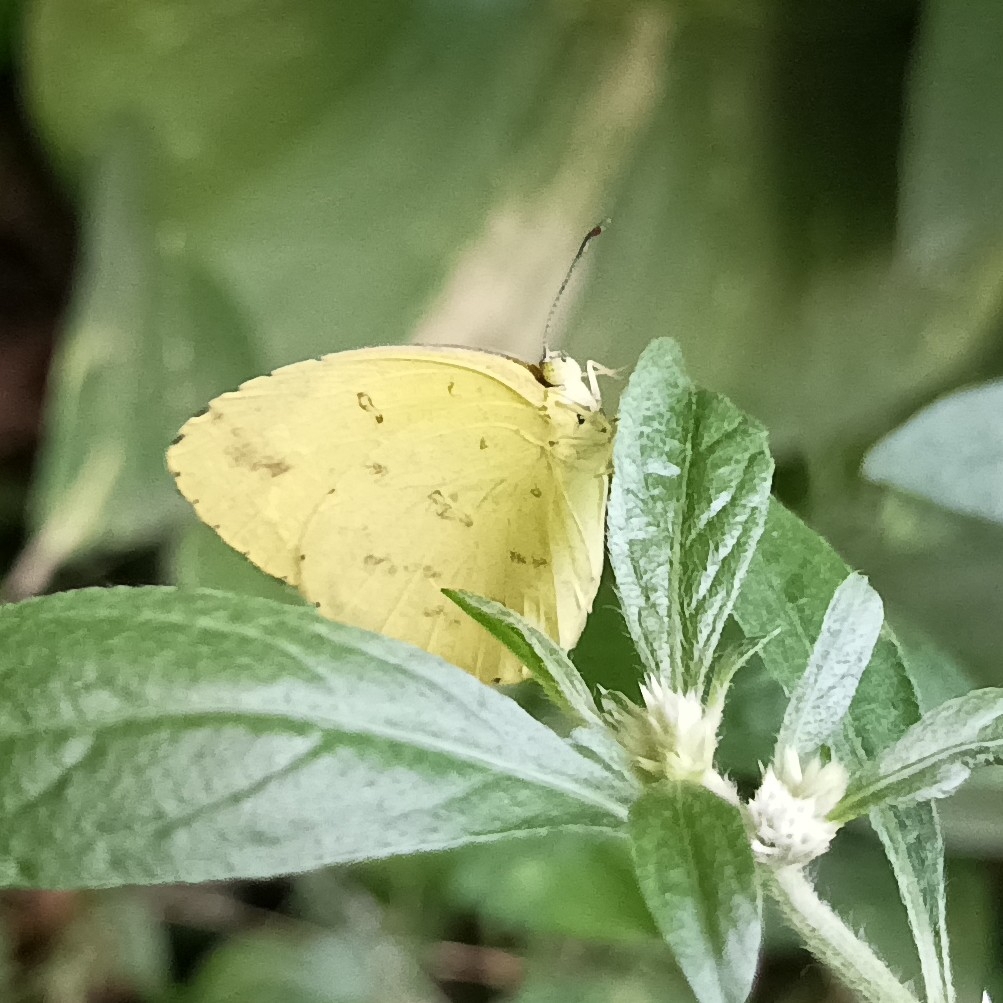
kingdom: Animalia
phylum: Arthropoda
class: Insecta
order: Lepidoptera
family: Pieridae
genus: Eurema
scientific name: Eurema hecabe
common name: Pale grass yellow
